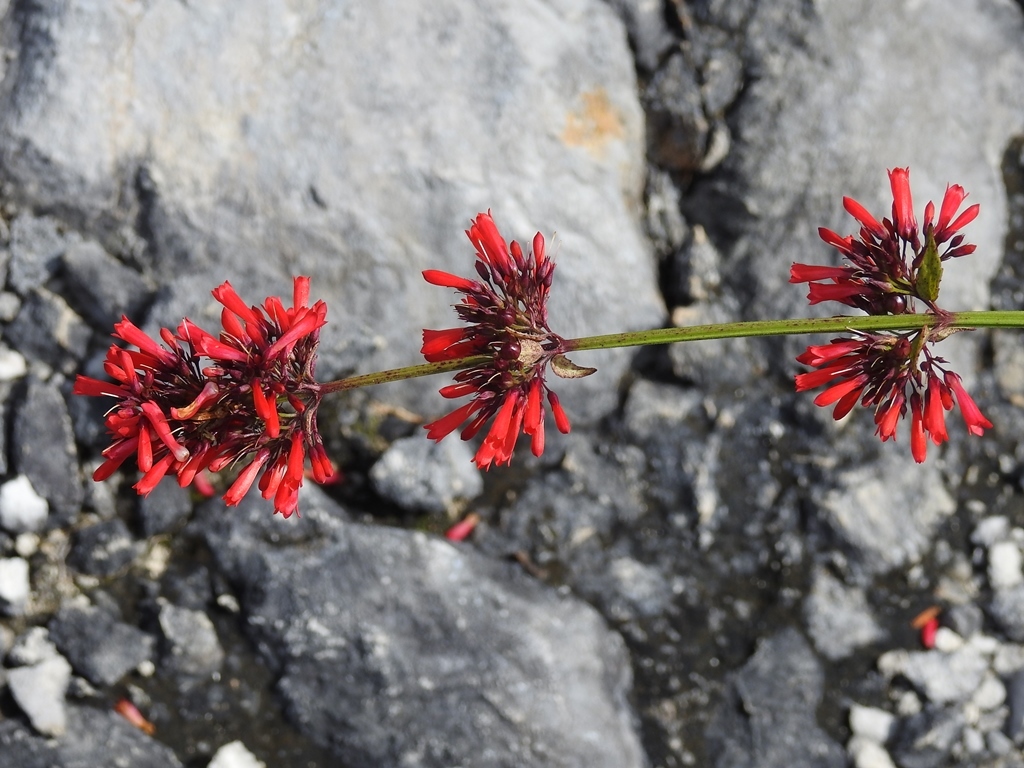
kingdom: Plantae
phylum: Tracheophyta
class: Magnoliopsida
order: Lamiales
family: Plantaginaceae
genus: Russelia
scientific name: Russelia verticillata
